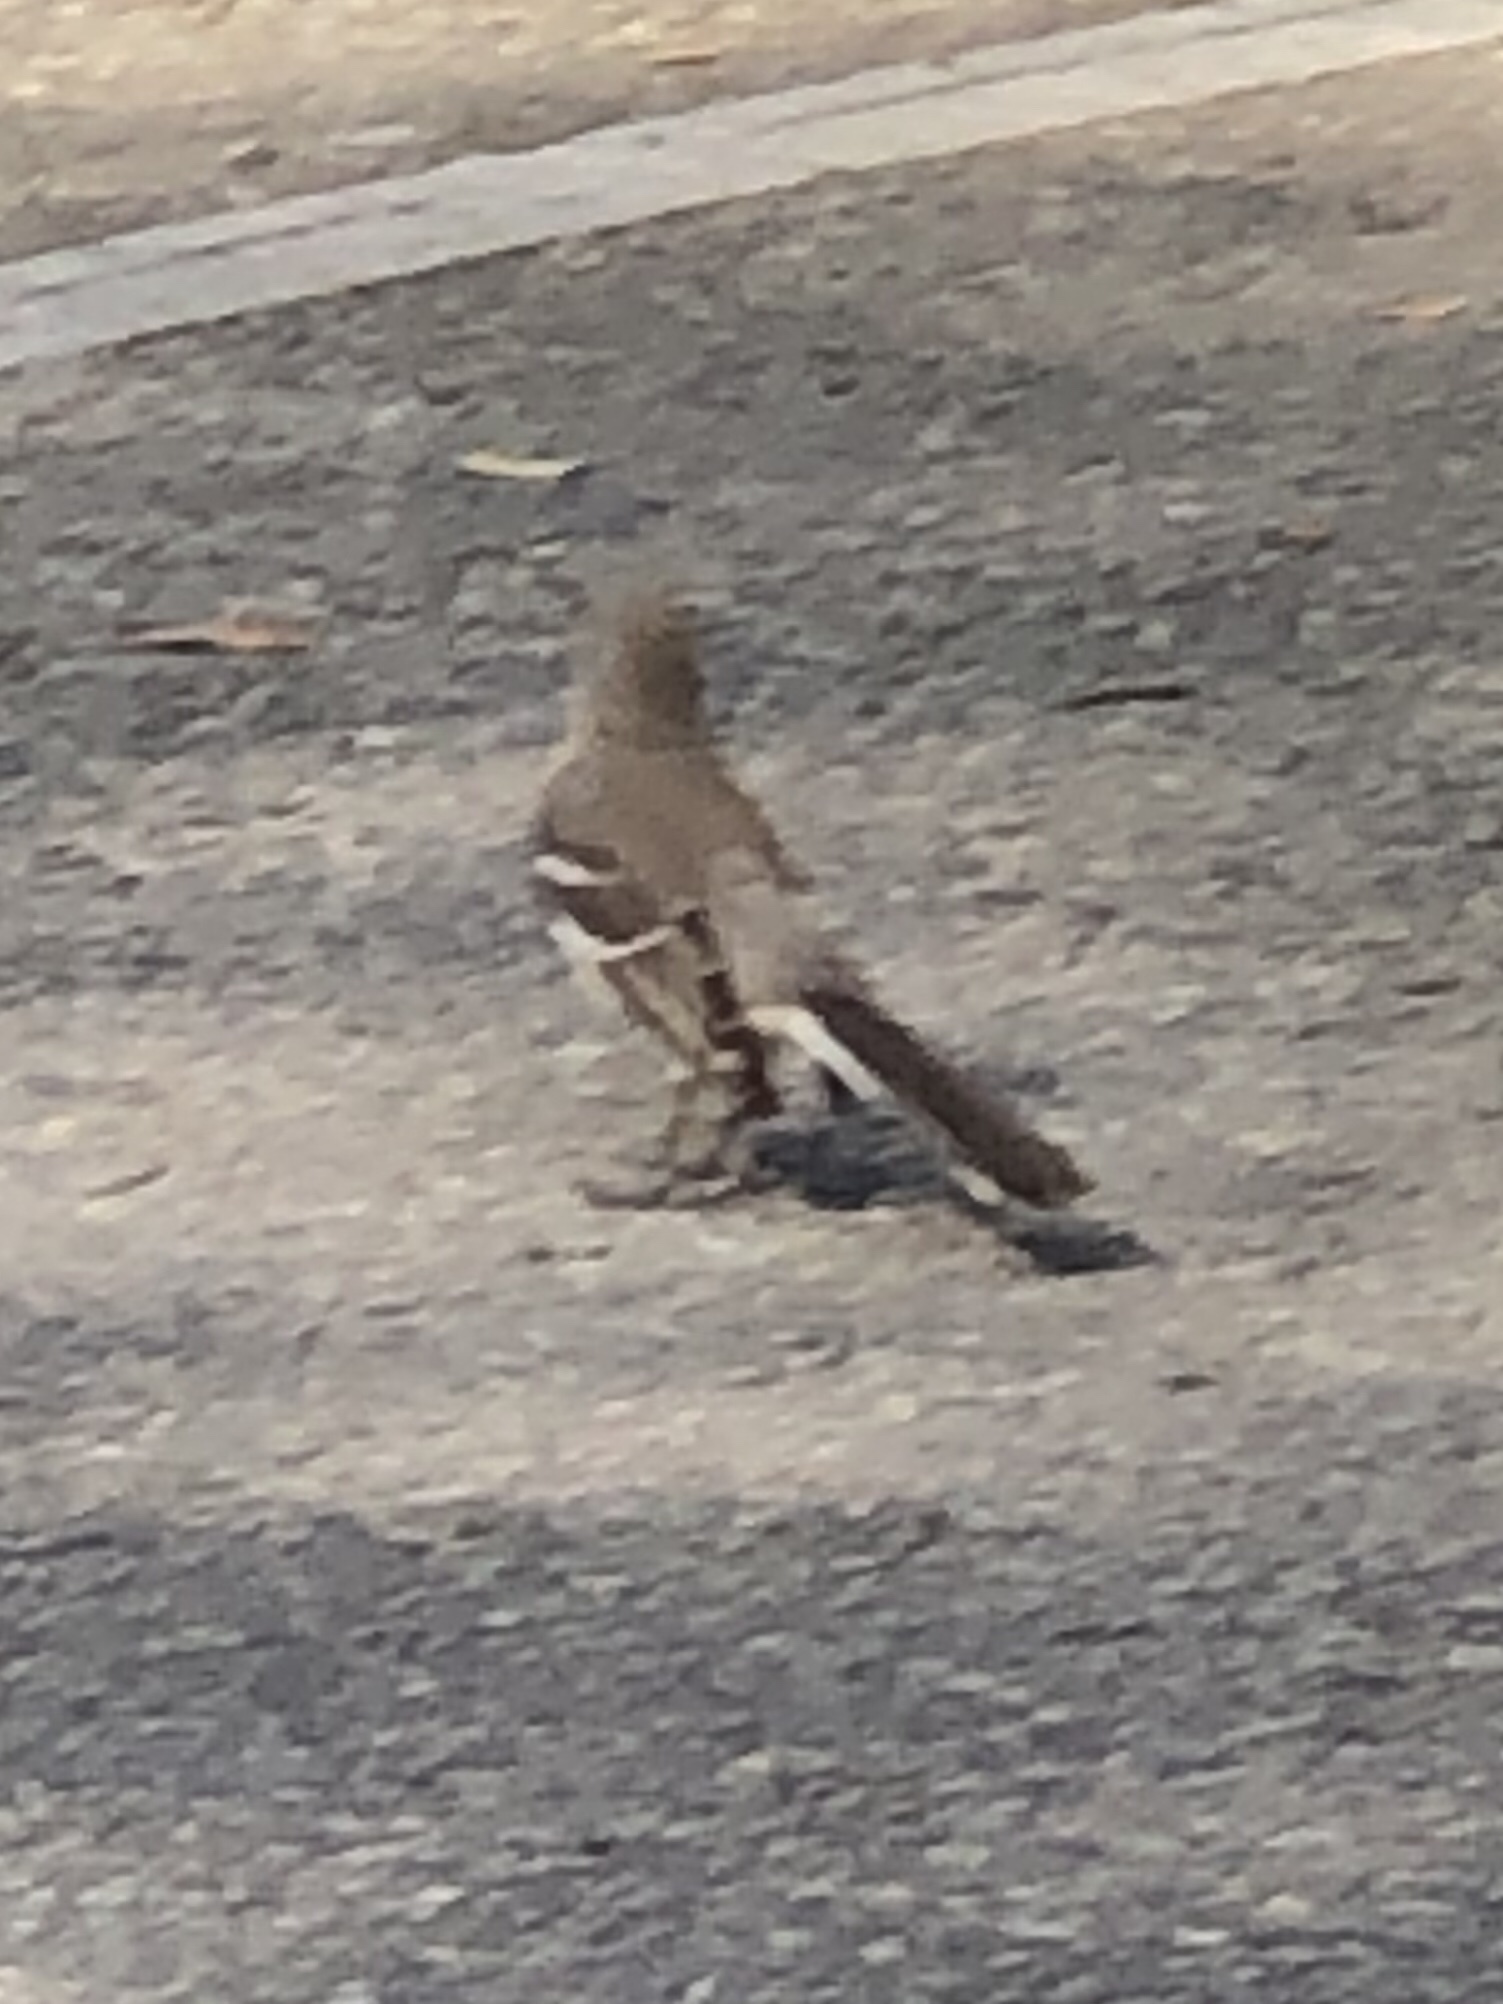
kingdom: Animalia
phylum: Chordata
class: Aves
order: Passeriformes
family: Mimidae
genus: Mimus
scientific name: Mimus polyglottos
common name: Northern mockingbird
